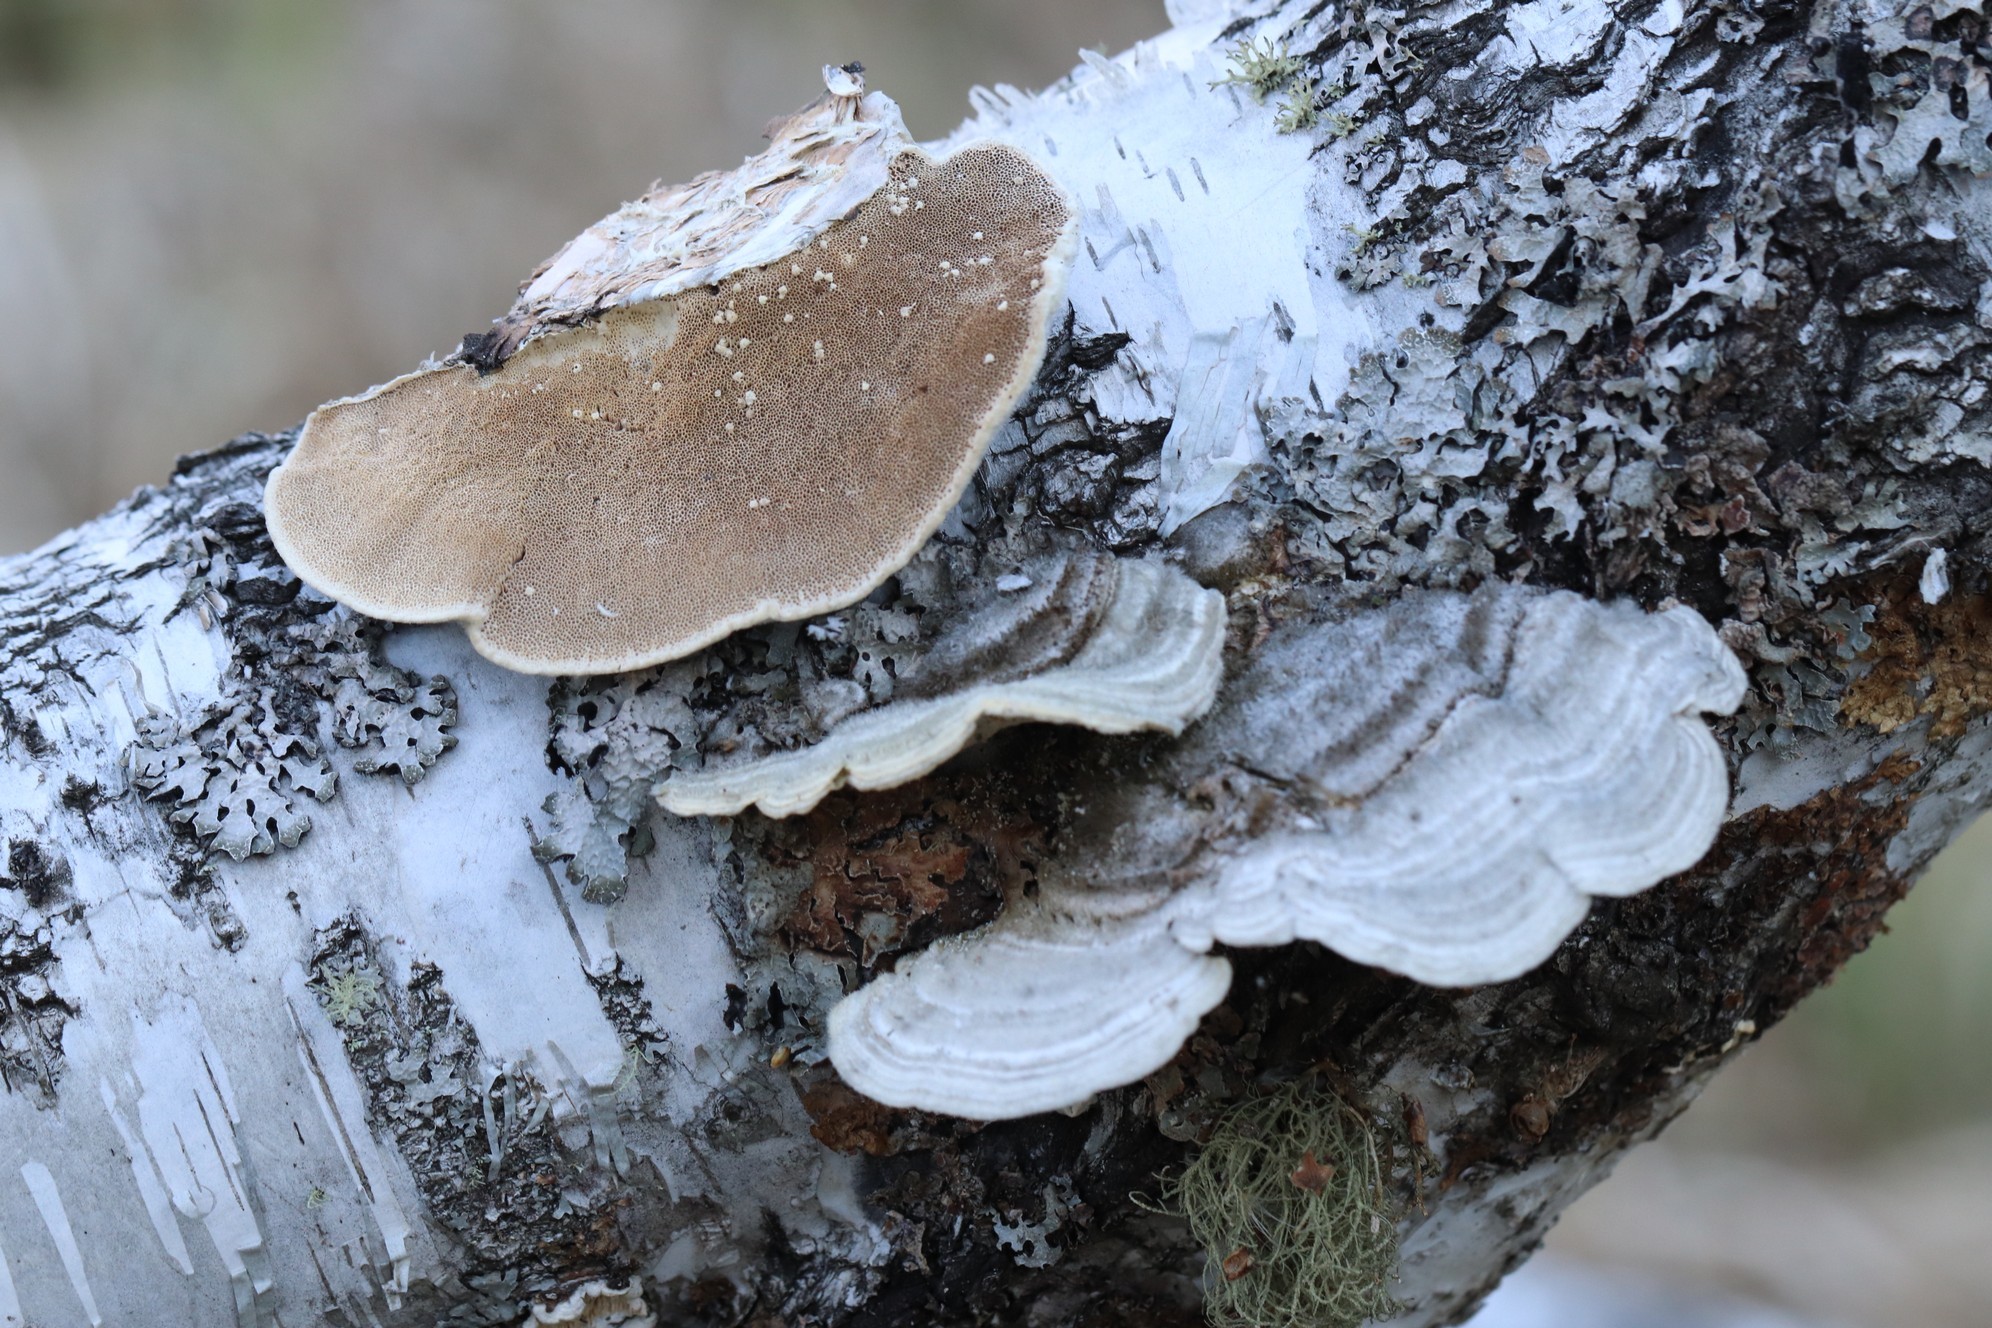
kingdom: Fungi
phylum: Basidiomycota
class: Agaricomycetes
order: Polyporales
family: Polyporaceae
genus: Trametes
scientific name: Trametes pubescens
